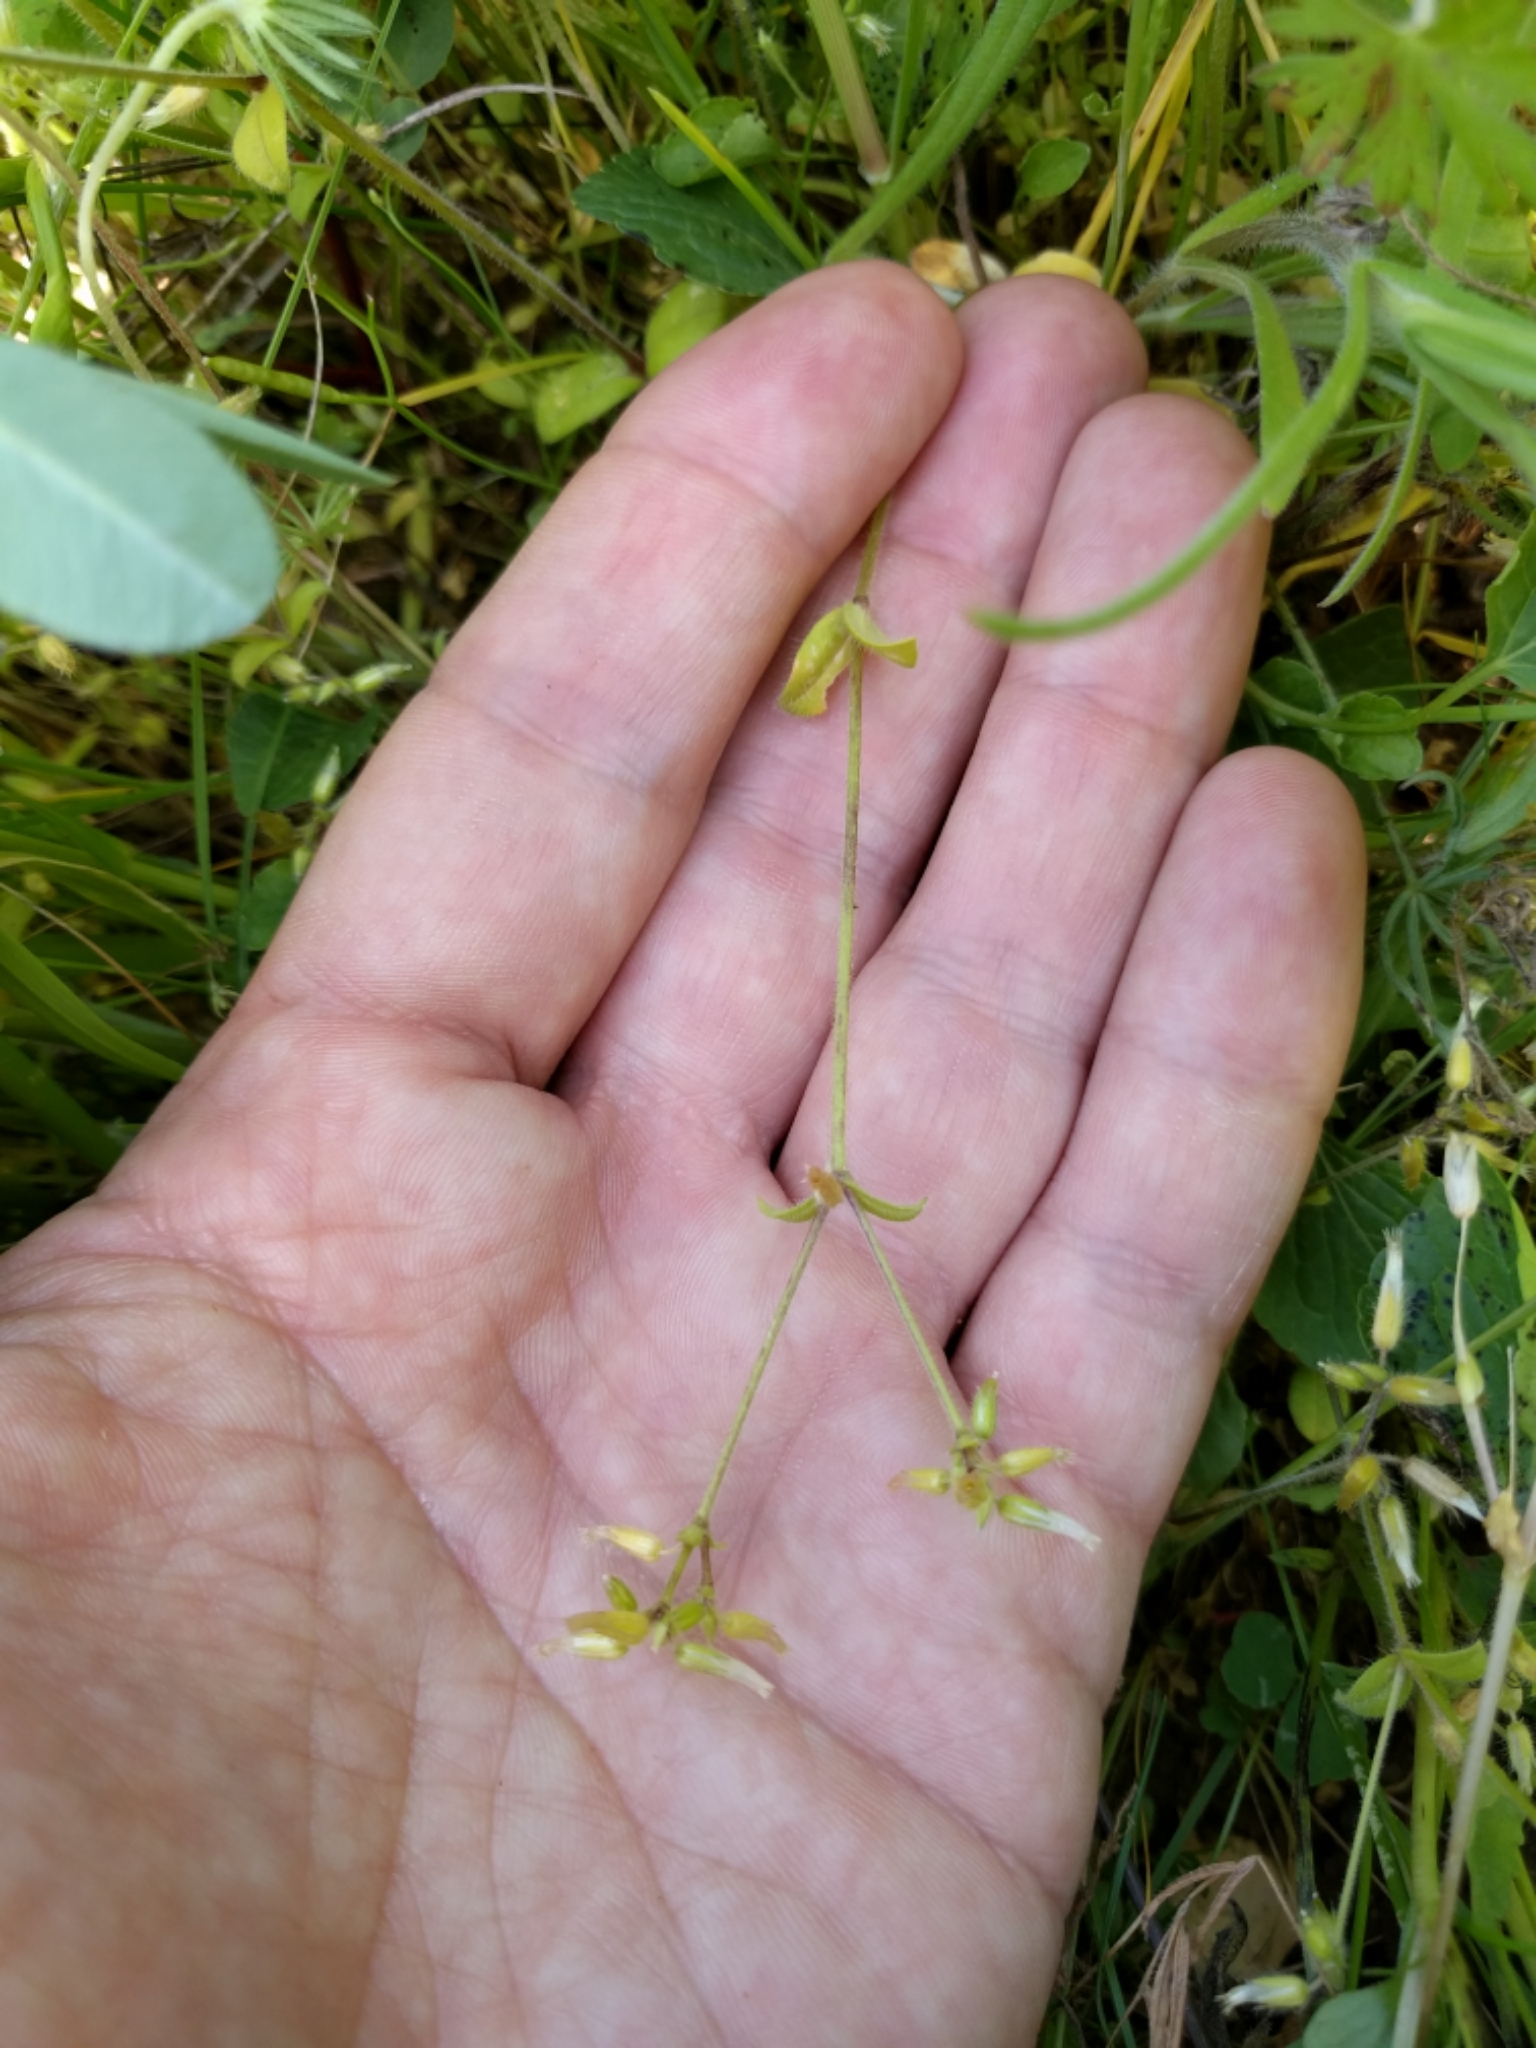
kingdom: Plantae
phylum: Tracheophyta
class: Magnoliopsida
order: Caryophyllales
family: Caryophyllaceae
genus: Cerastium
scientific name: Cerastium glomeratum
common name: Sticky chickweed
